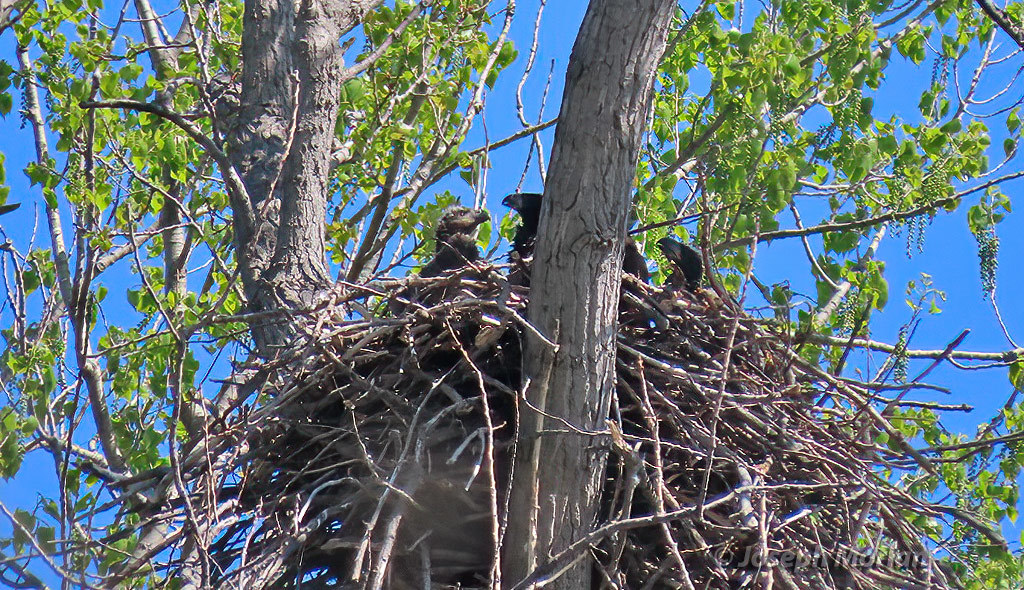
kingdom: Animalia
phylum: Chordata
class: Aves
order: Accipitriformes
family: Accipitridae
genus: Haliaeetus
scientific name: Haliaeetus leucocephalus
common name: Bald eagle
